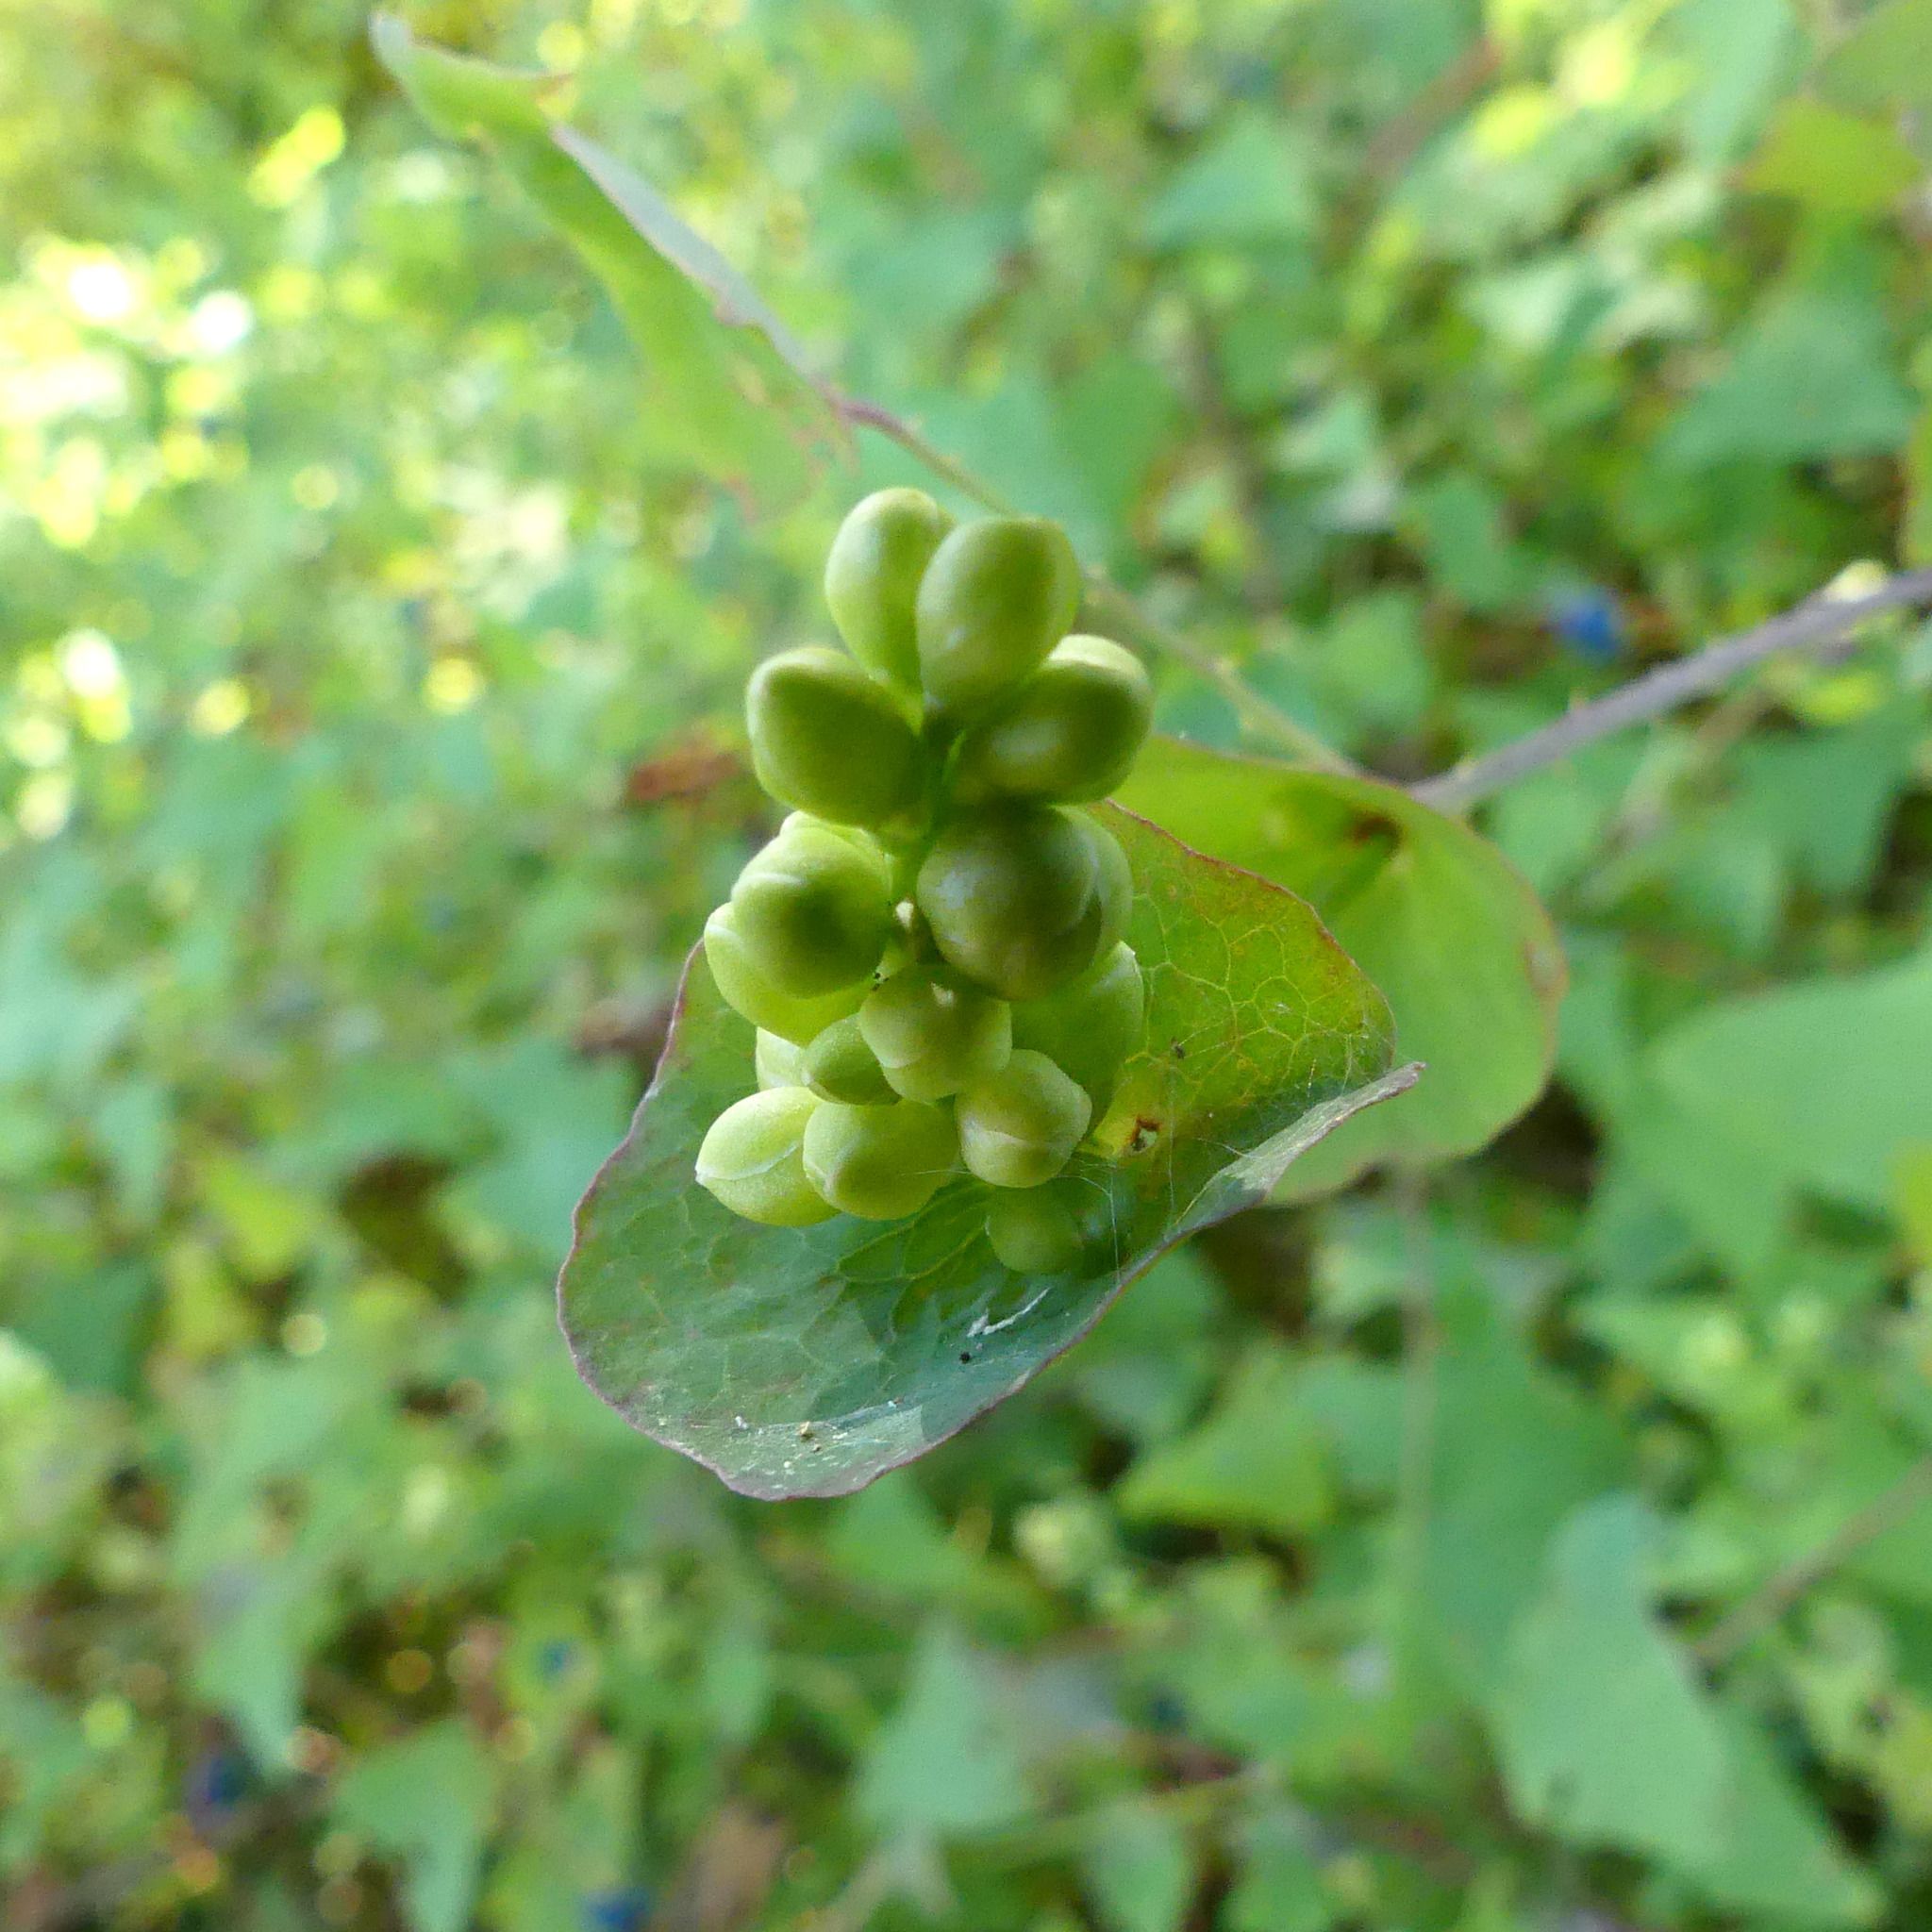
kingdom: Plantae
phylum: Tracheophyta
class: Magnoliopsida
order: Caryophyllales
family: Polygonaceae
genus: Persicaria
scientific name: Persicaria perfoliata
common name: Asiatic tearthumb
